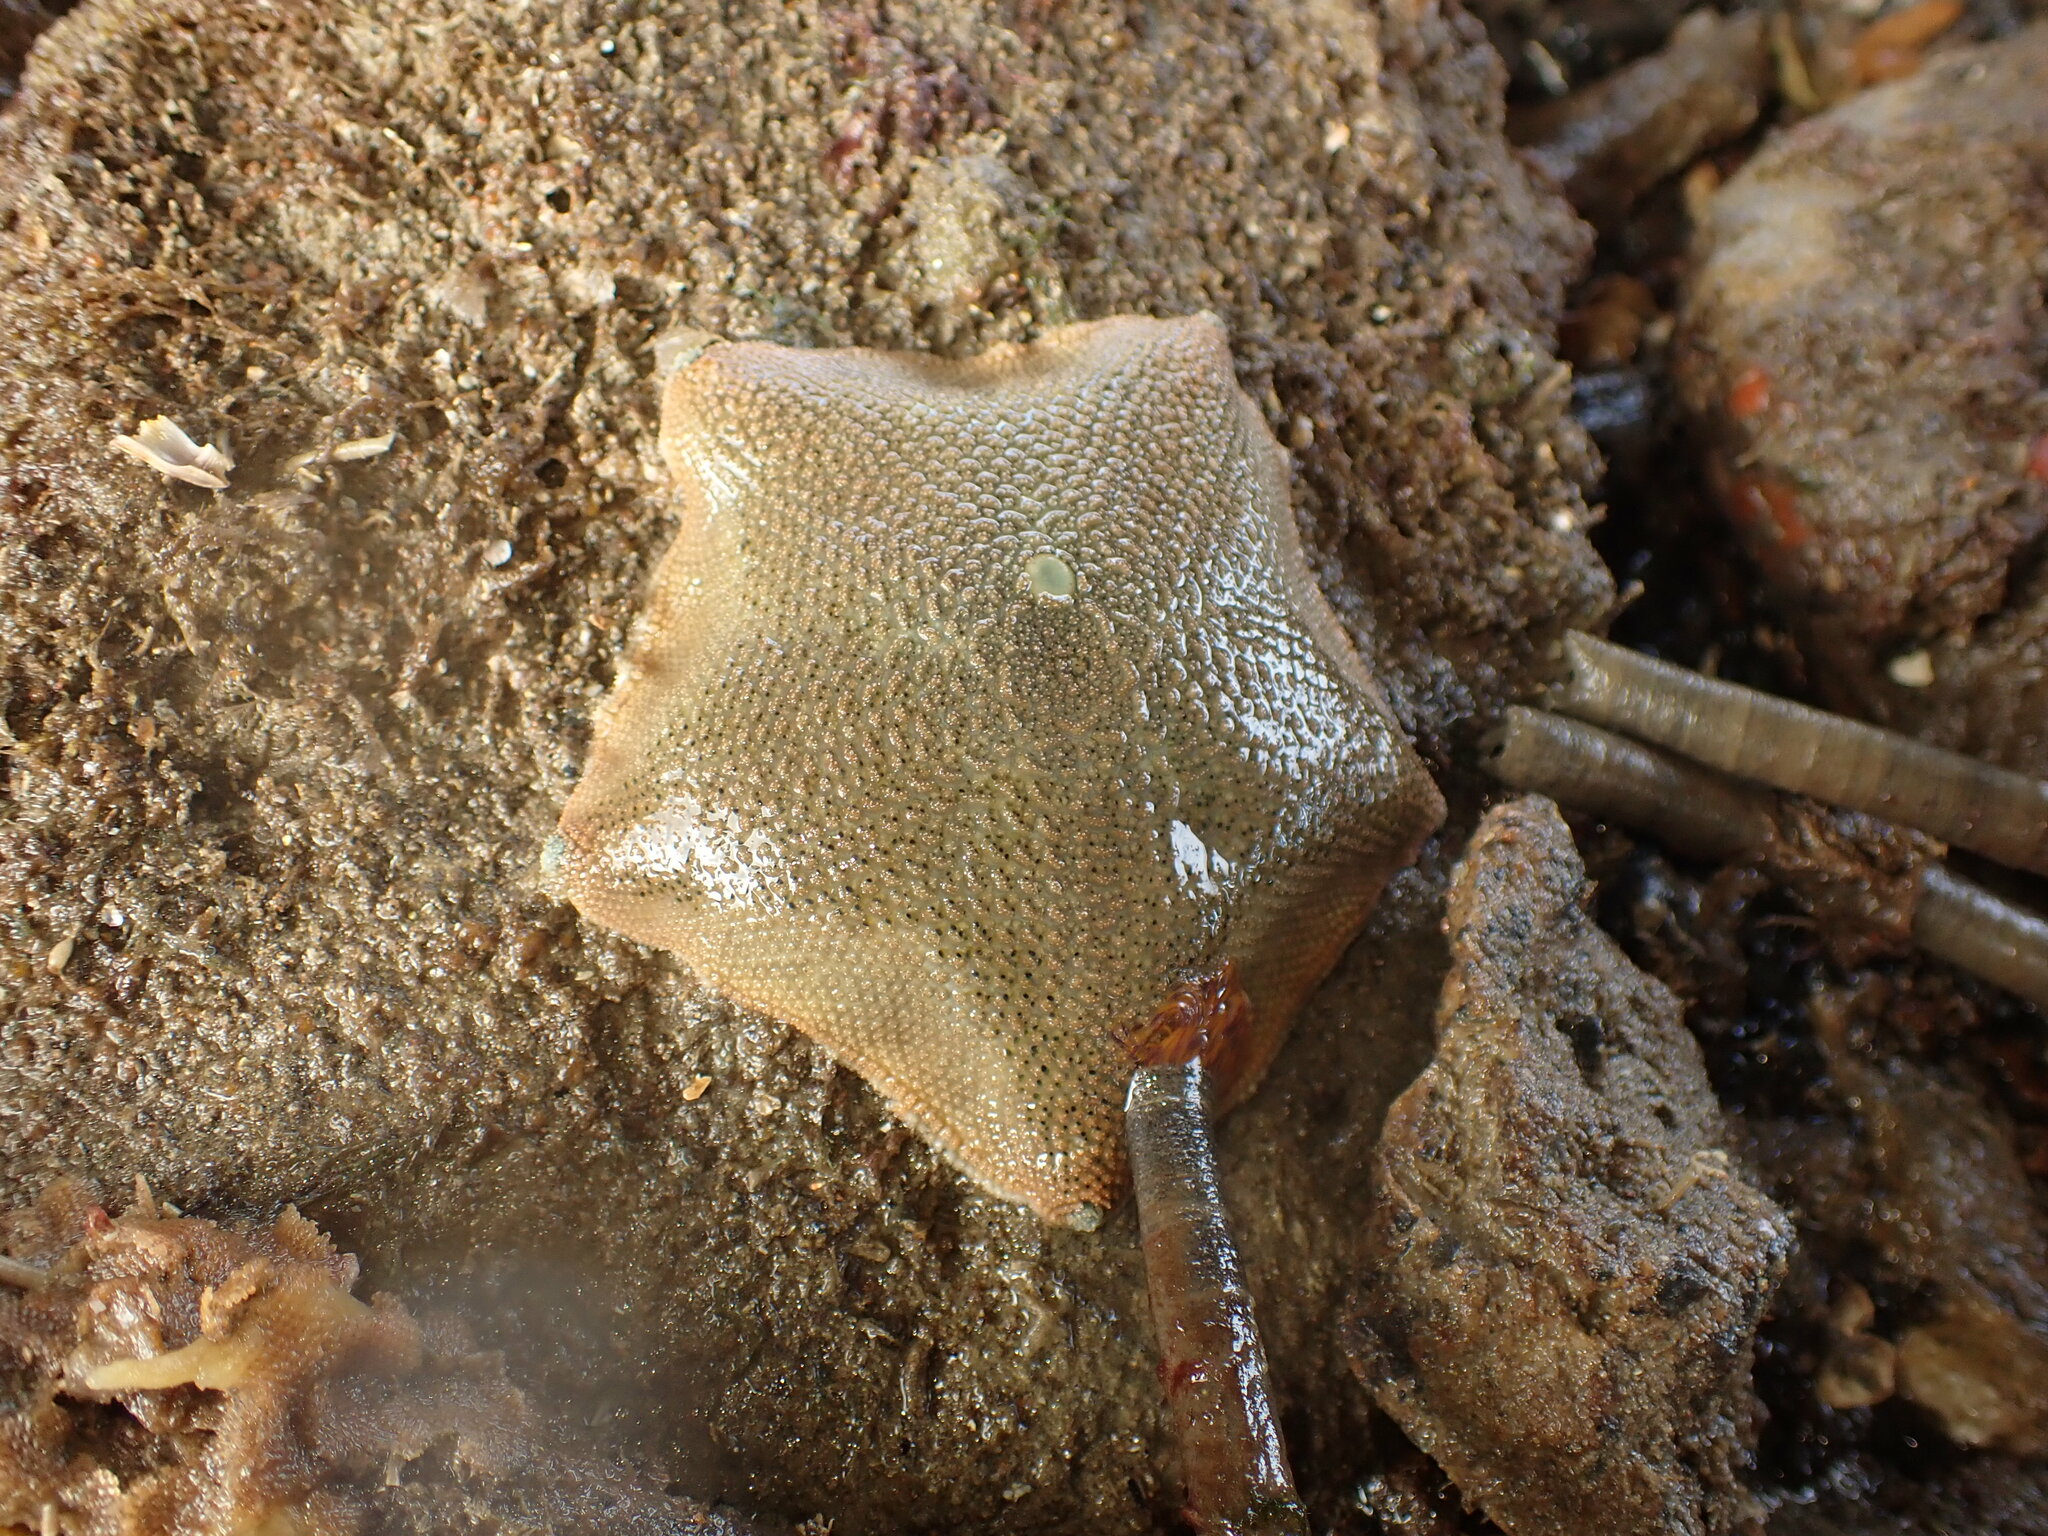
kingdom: Animalia
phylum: Echinodermata
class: Asteroidea
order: Valvatida
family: Asterinidae
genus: Patiriella
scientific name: Patiriella regularis
